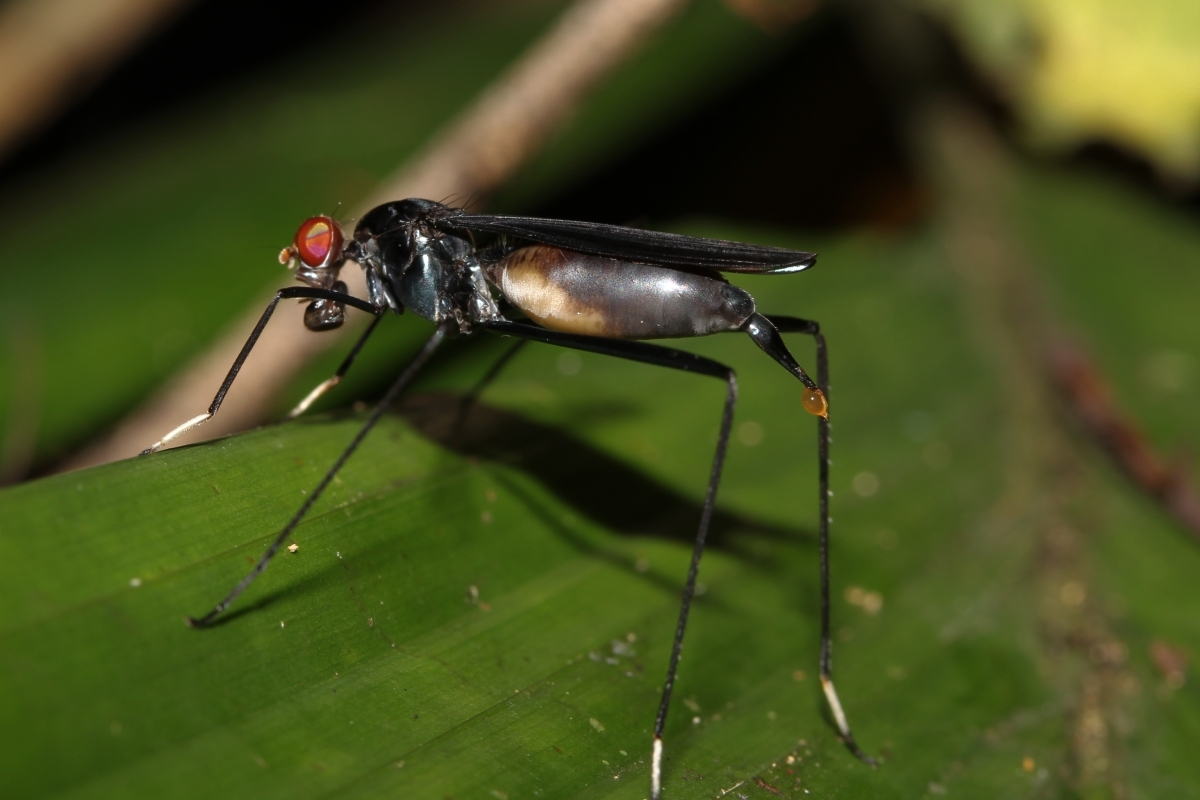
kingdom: Animalia
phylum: Arthropoda
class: Insecta
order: Diptera
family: Micropezidae
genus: Scipopus
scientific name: Scipopus
